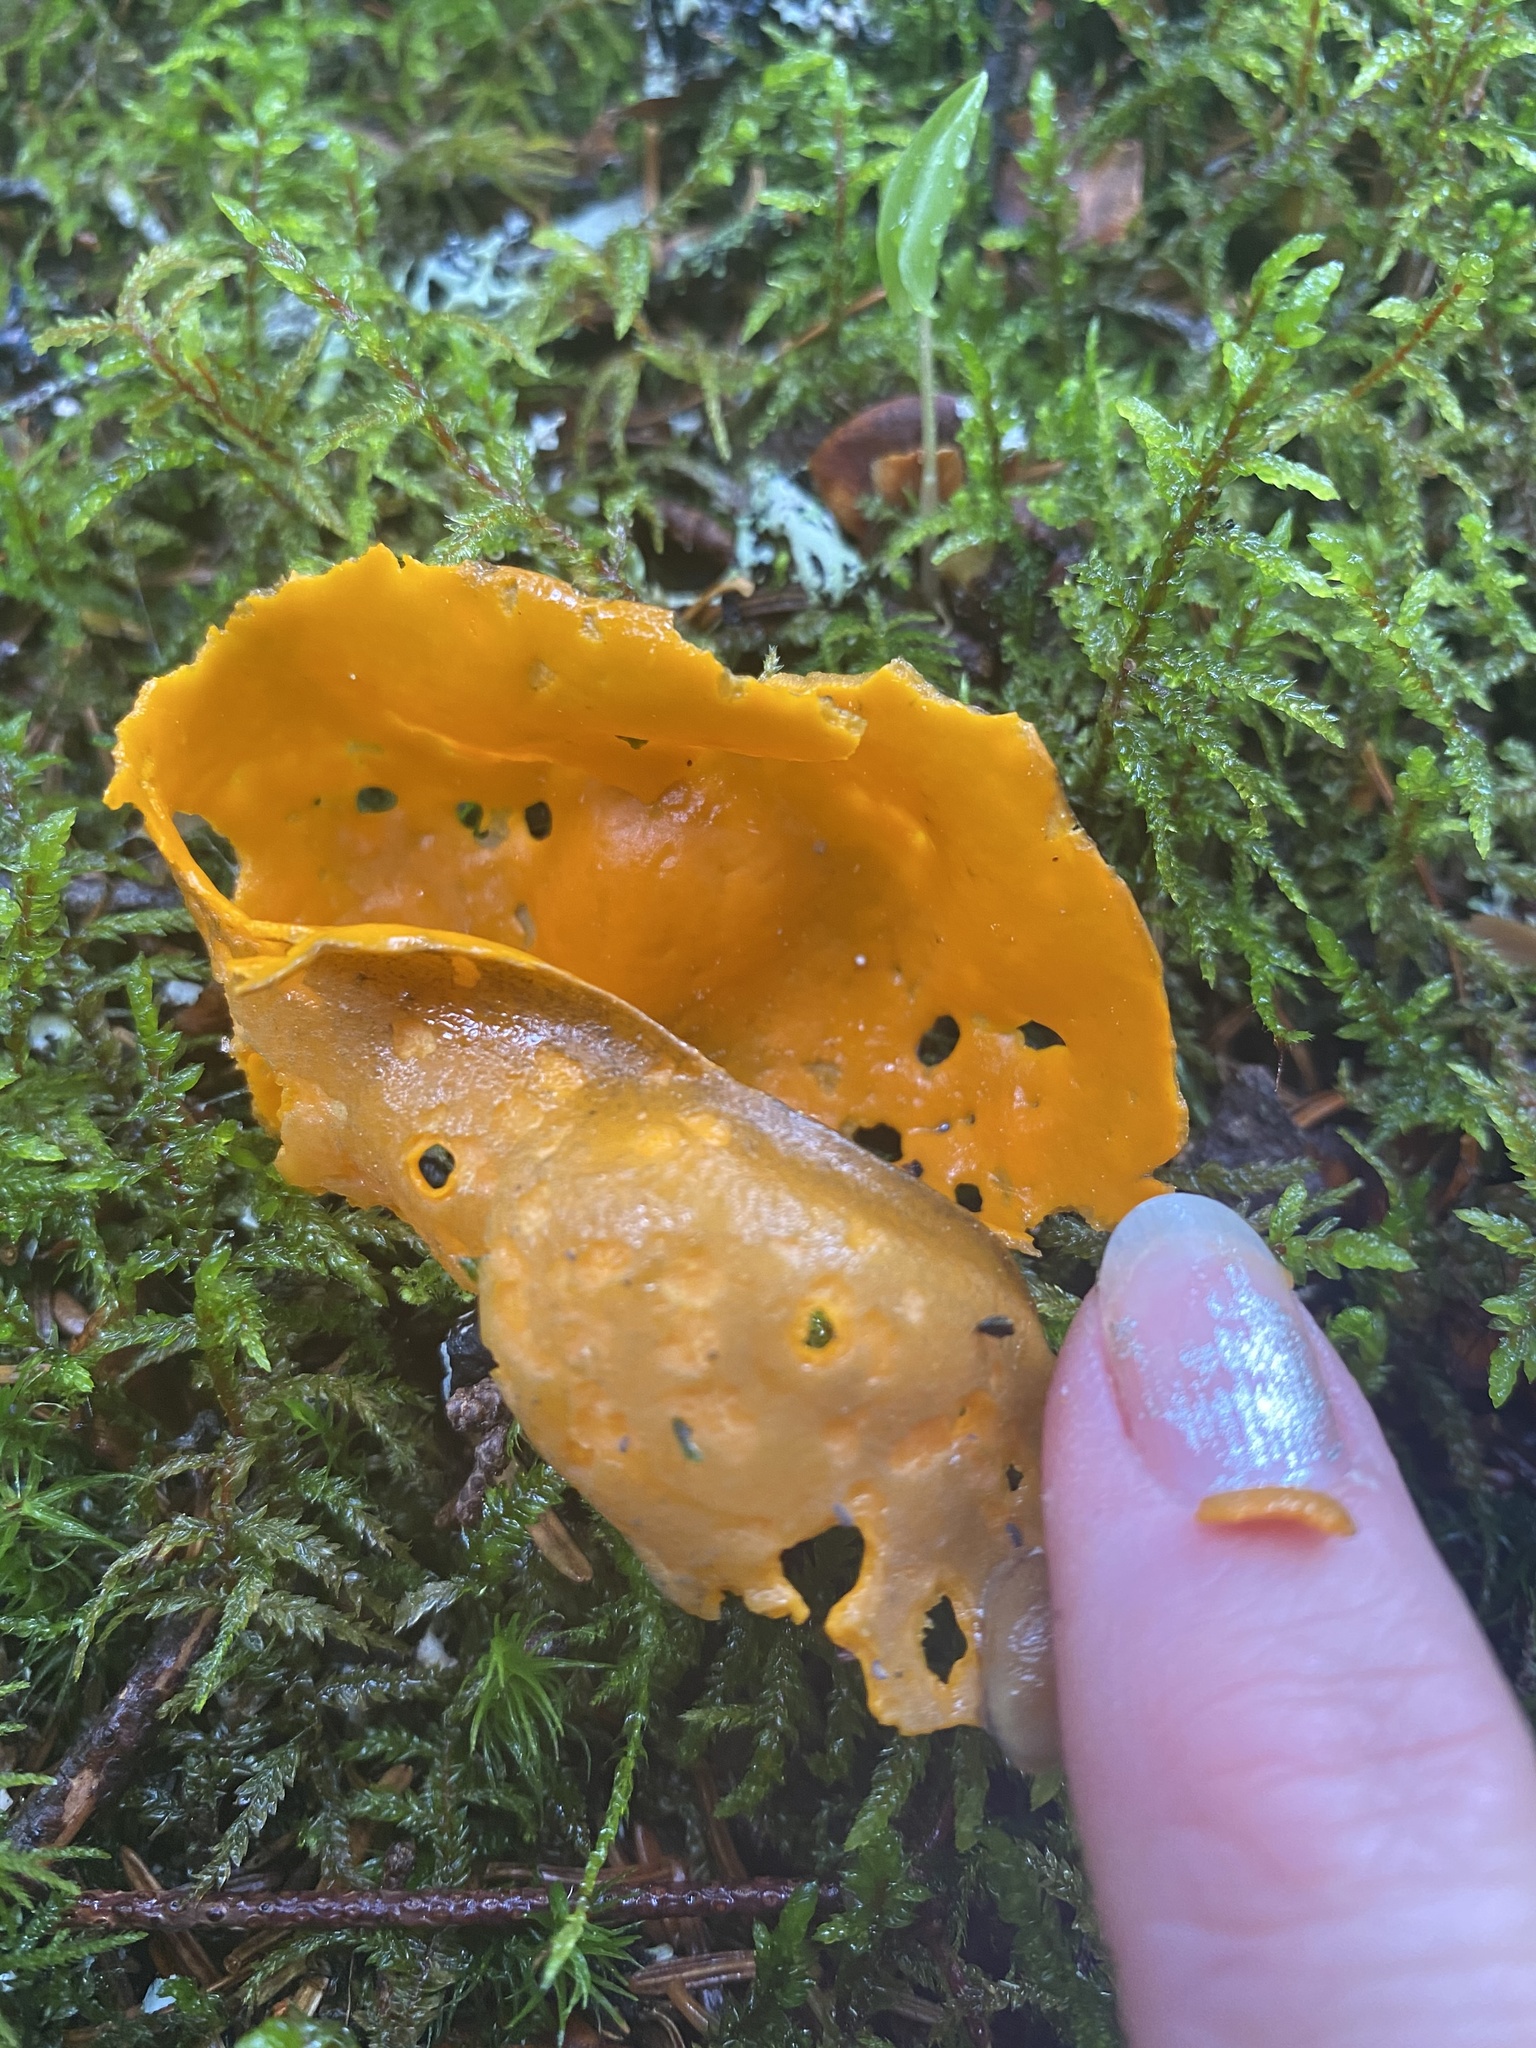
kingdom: Fungi
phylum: Ascomycota
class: Pezizomycetes
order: Pezizales
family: Caloscyphaceae
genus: Caloscypha
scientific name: Caloscypha fulgens
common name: Golden cup
